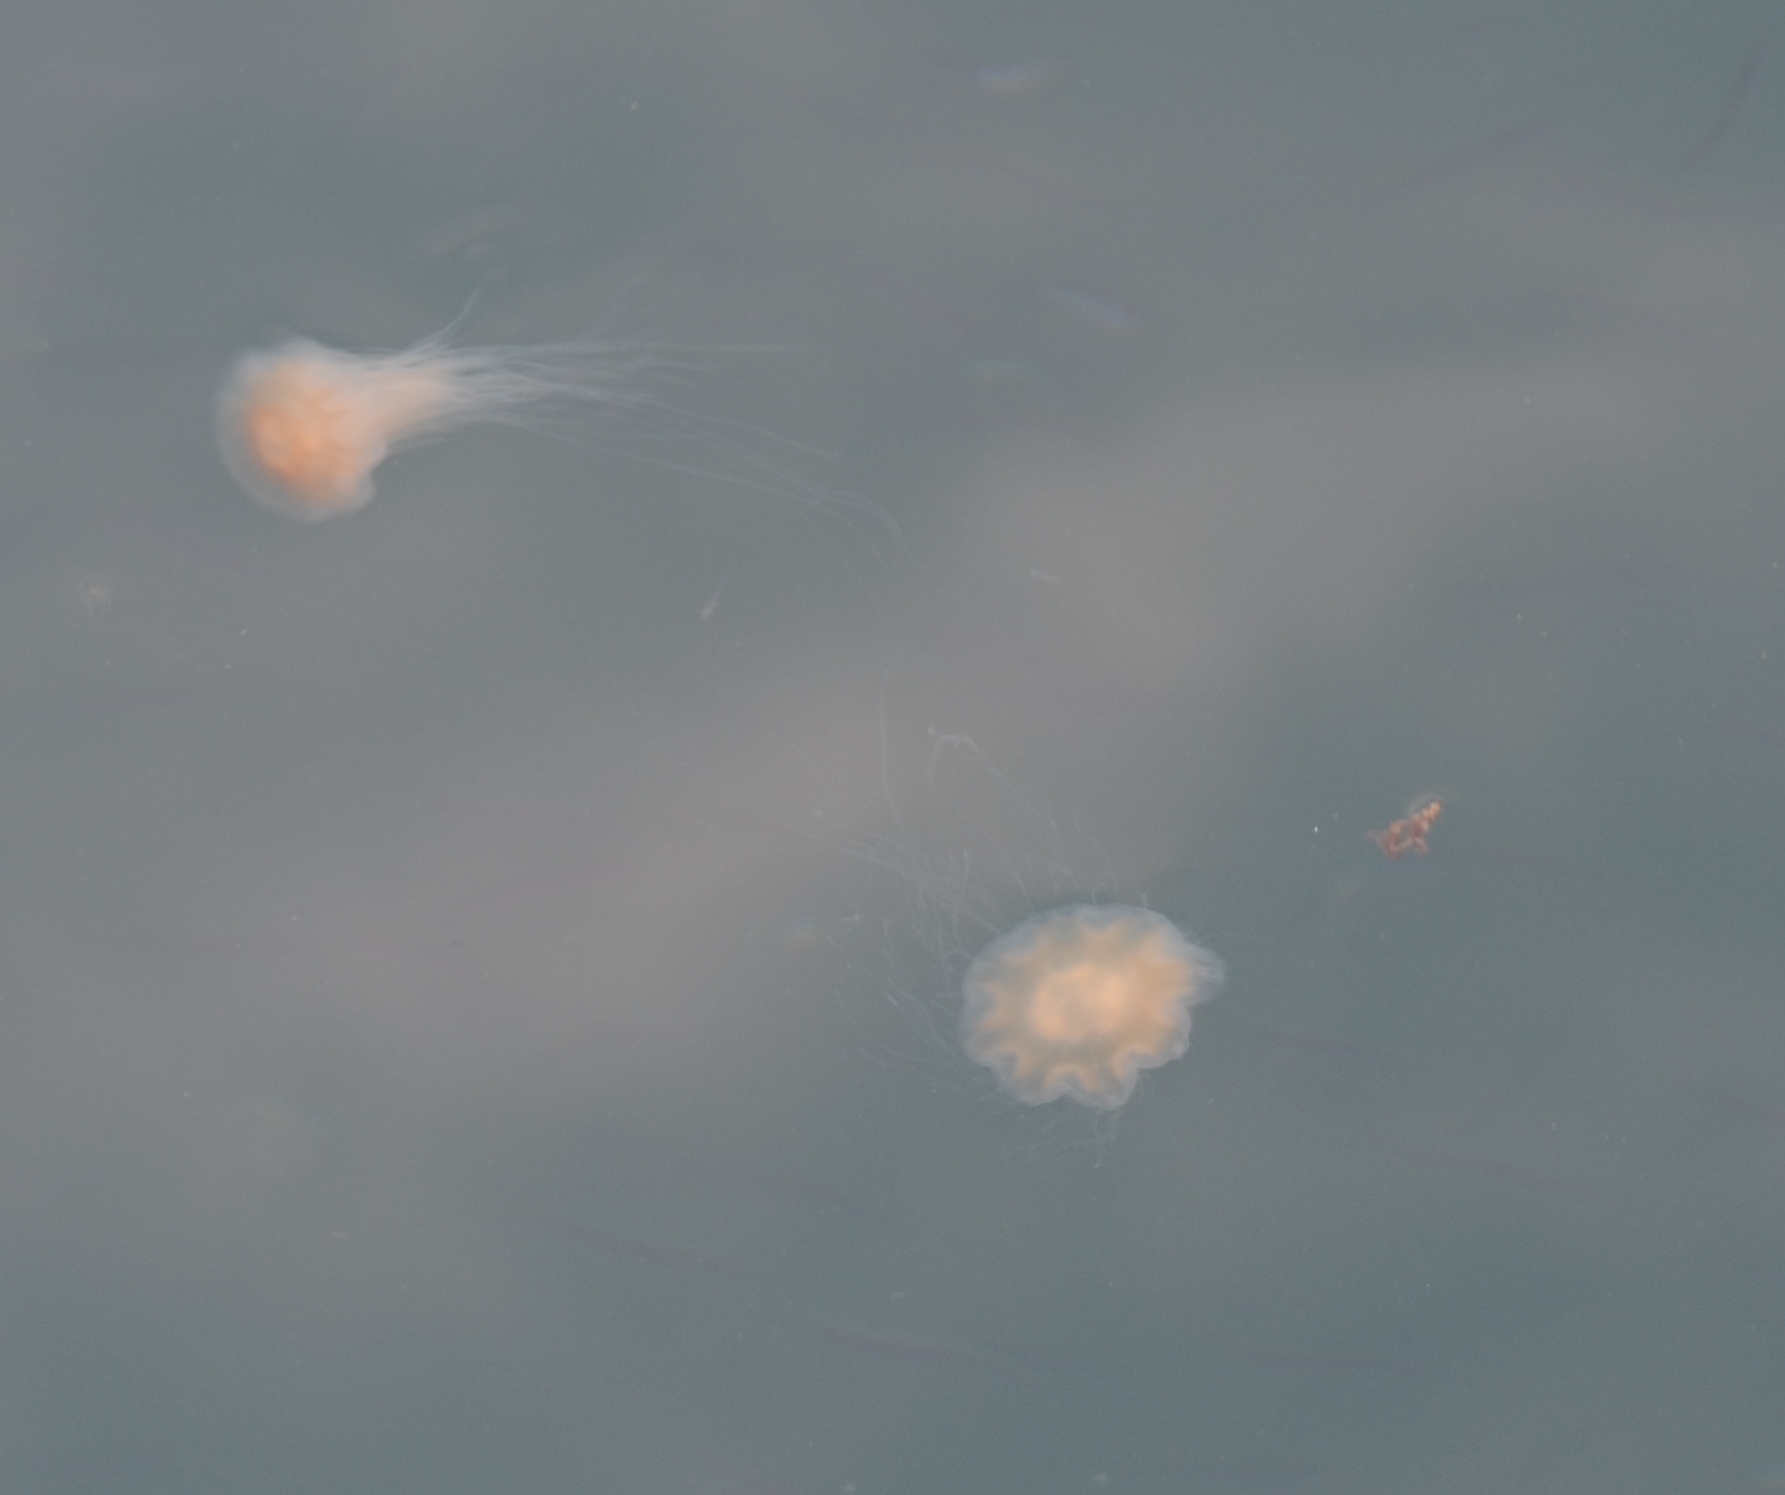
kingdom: Animalia
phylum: Cnidaria
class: Scyphozoa
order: Semaeostomeae
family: Cyaneidae
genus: Cyanea
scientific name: Cyanea capillata
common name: Lion's mane jellyfish
